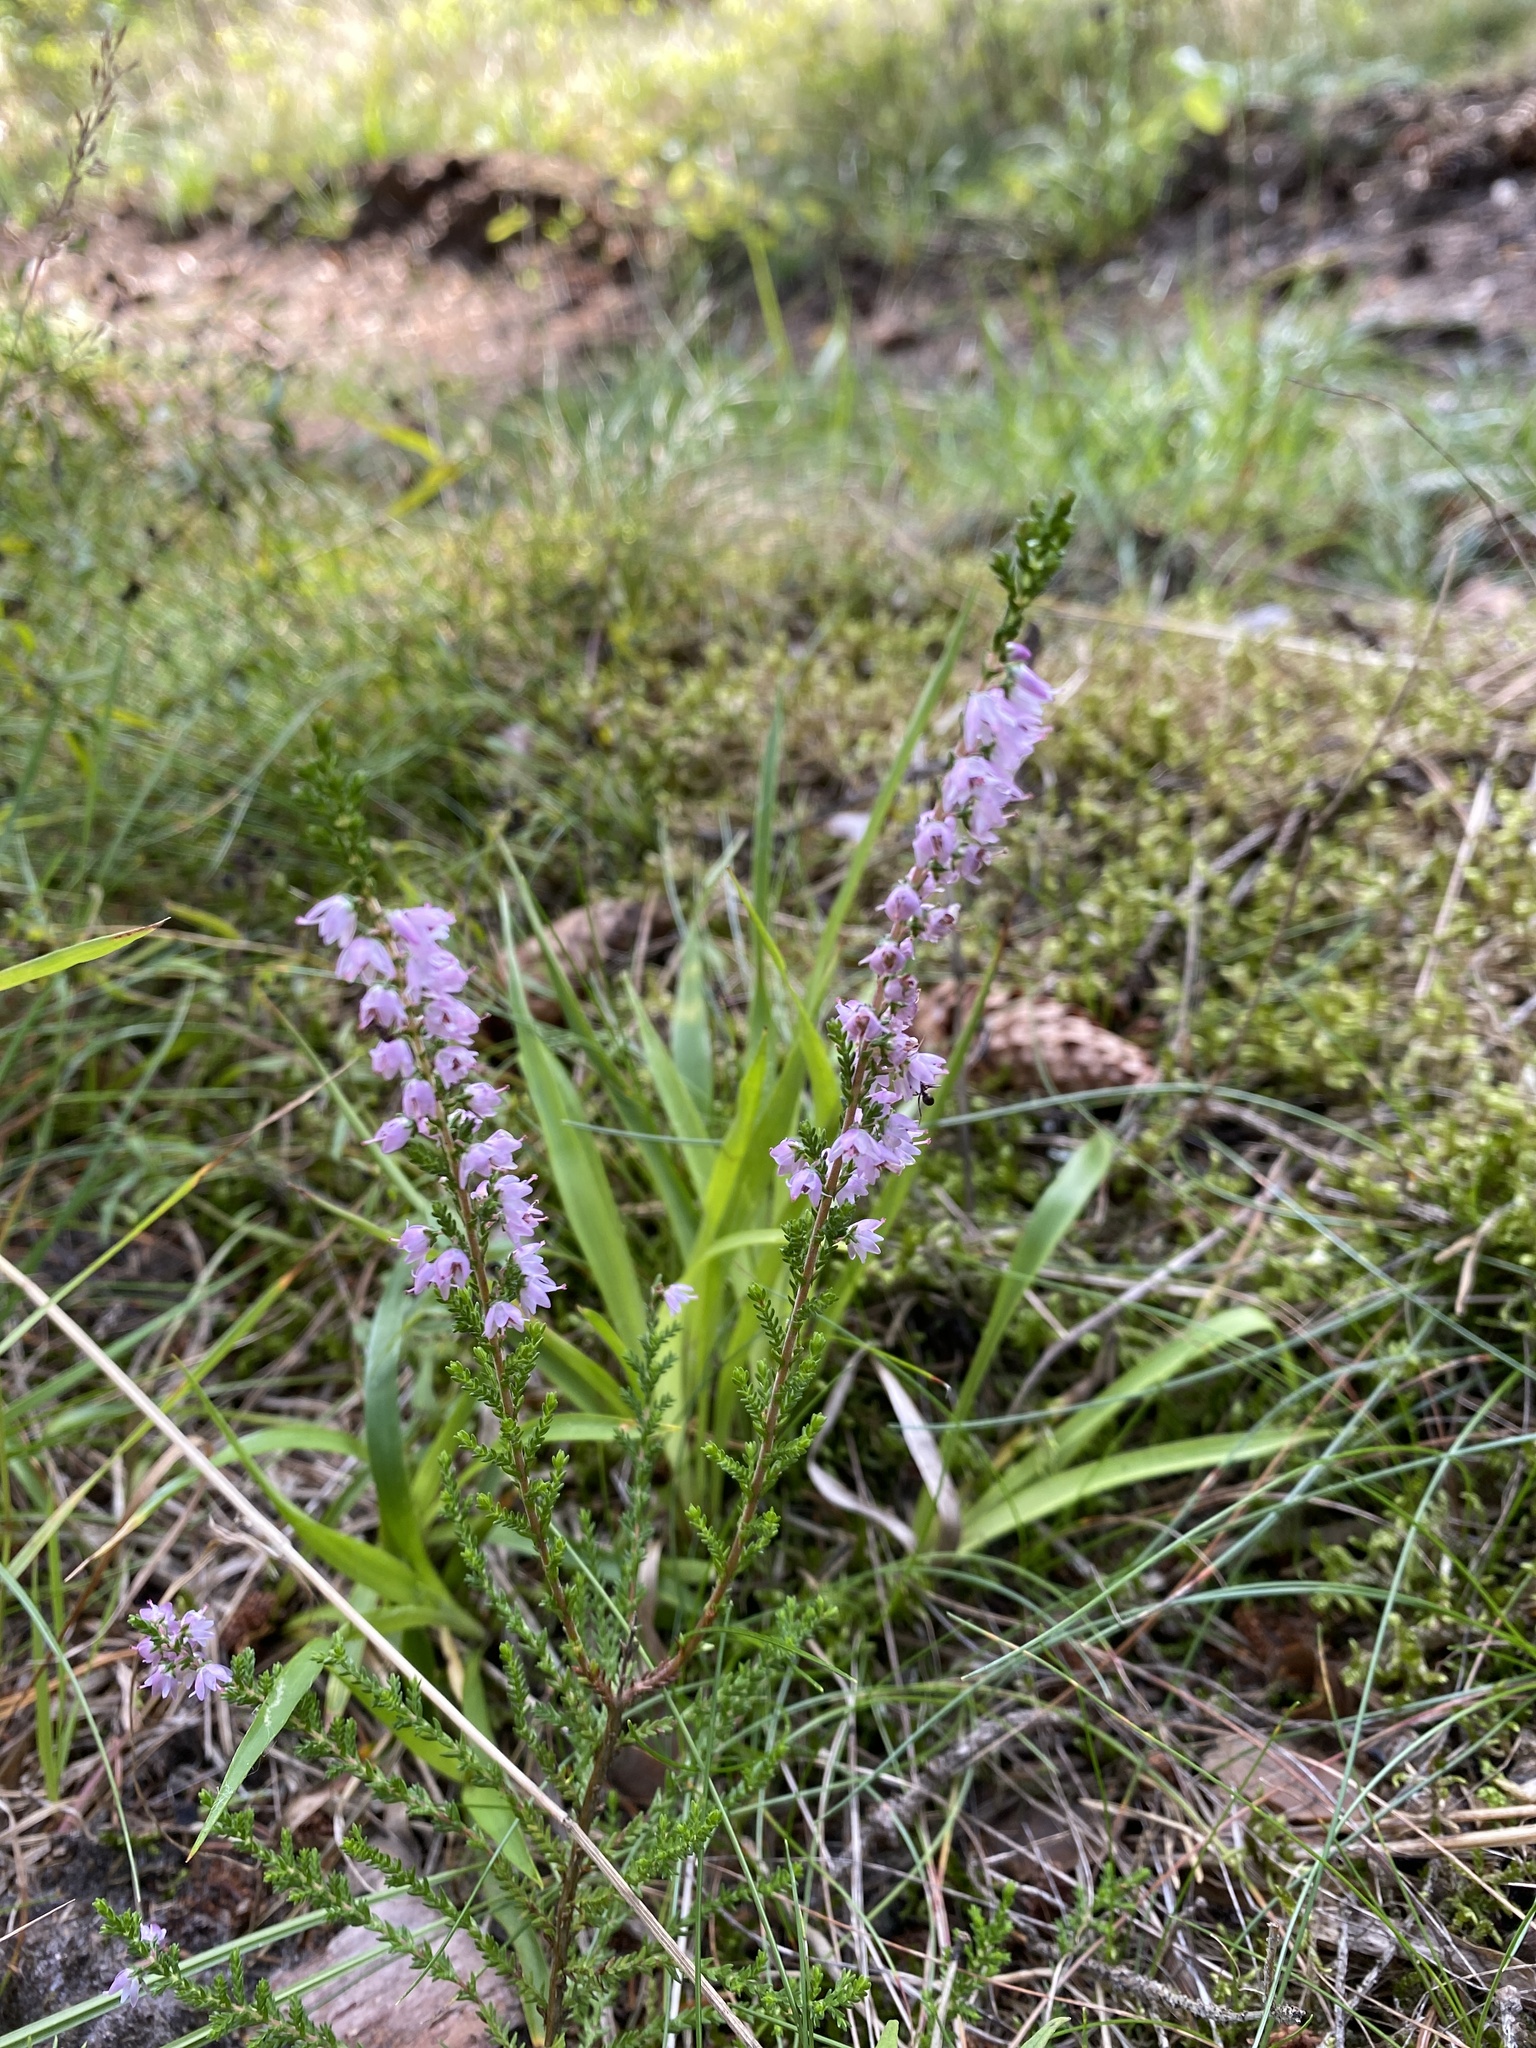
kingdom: Plantae
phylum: Tracheophyta
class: Magnoliopsida
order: Ericales
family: Ericaceae
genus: Calluna
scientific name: Calluna vulgaris
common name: Heather
